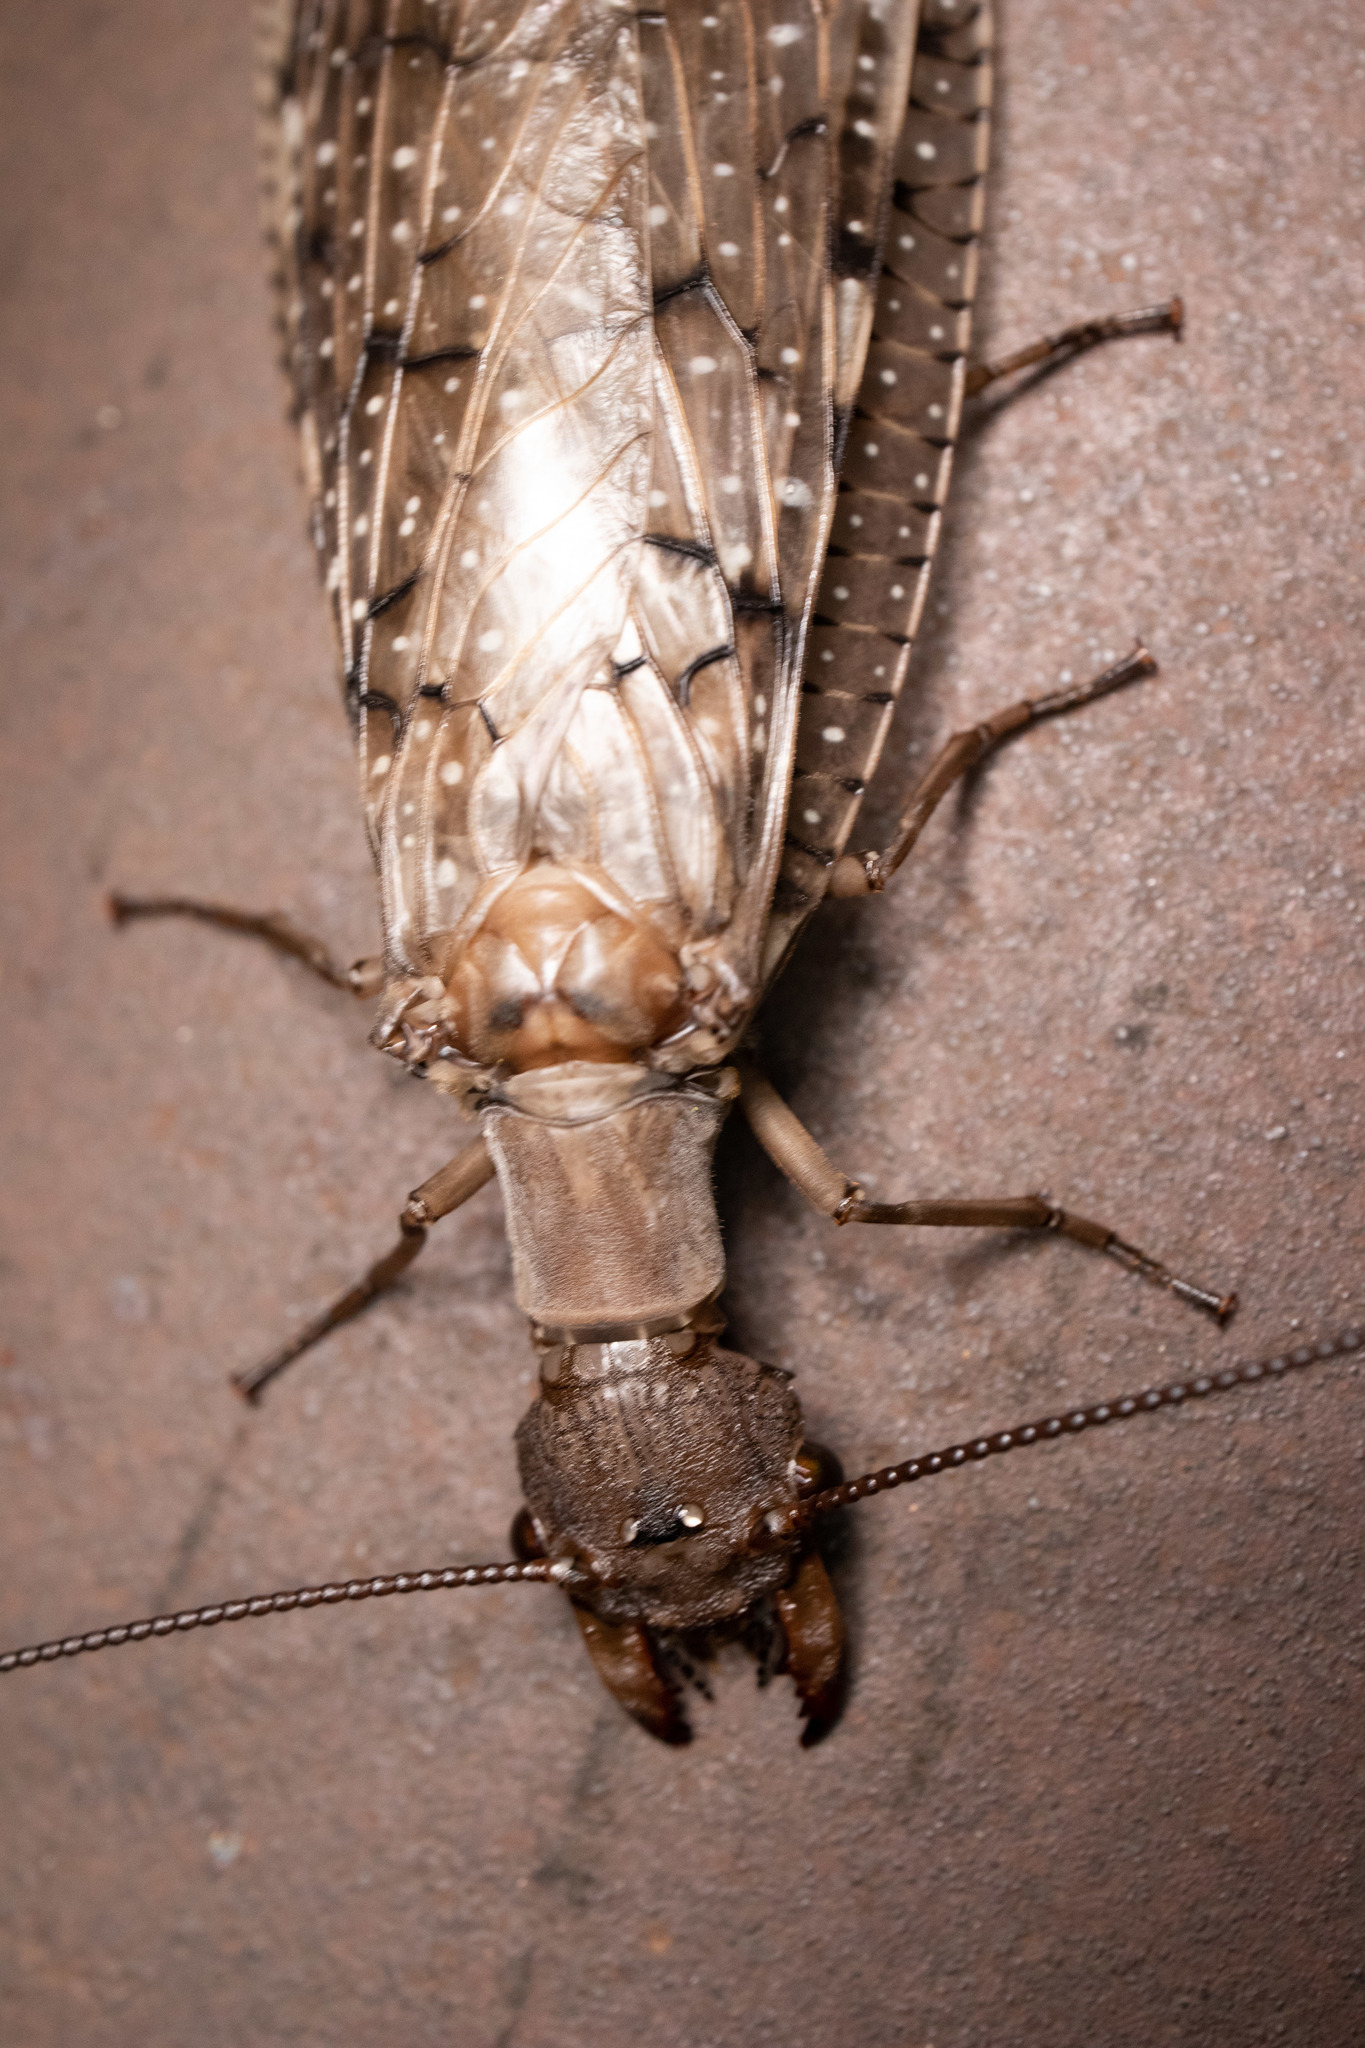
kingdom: Animalia
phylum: Arthropoda
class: Insecta
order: Megaloptera
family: Corydalidae
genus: Corydalus
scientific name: Corydalus cornutus
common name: Dobsonfly
